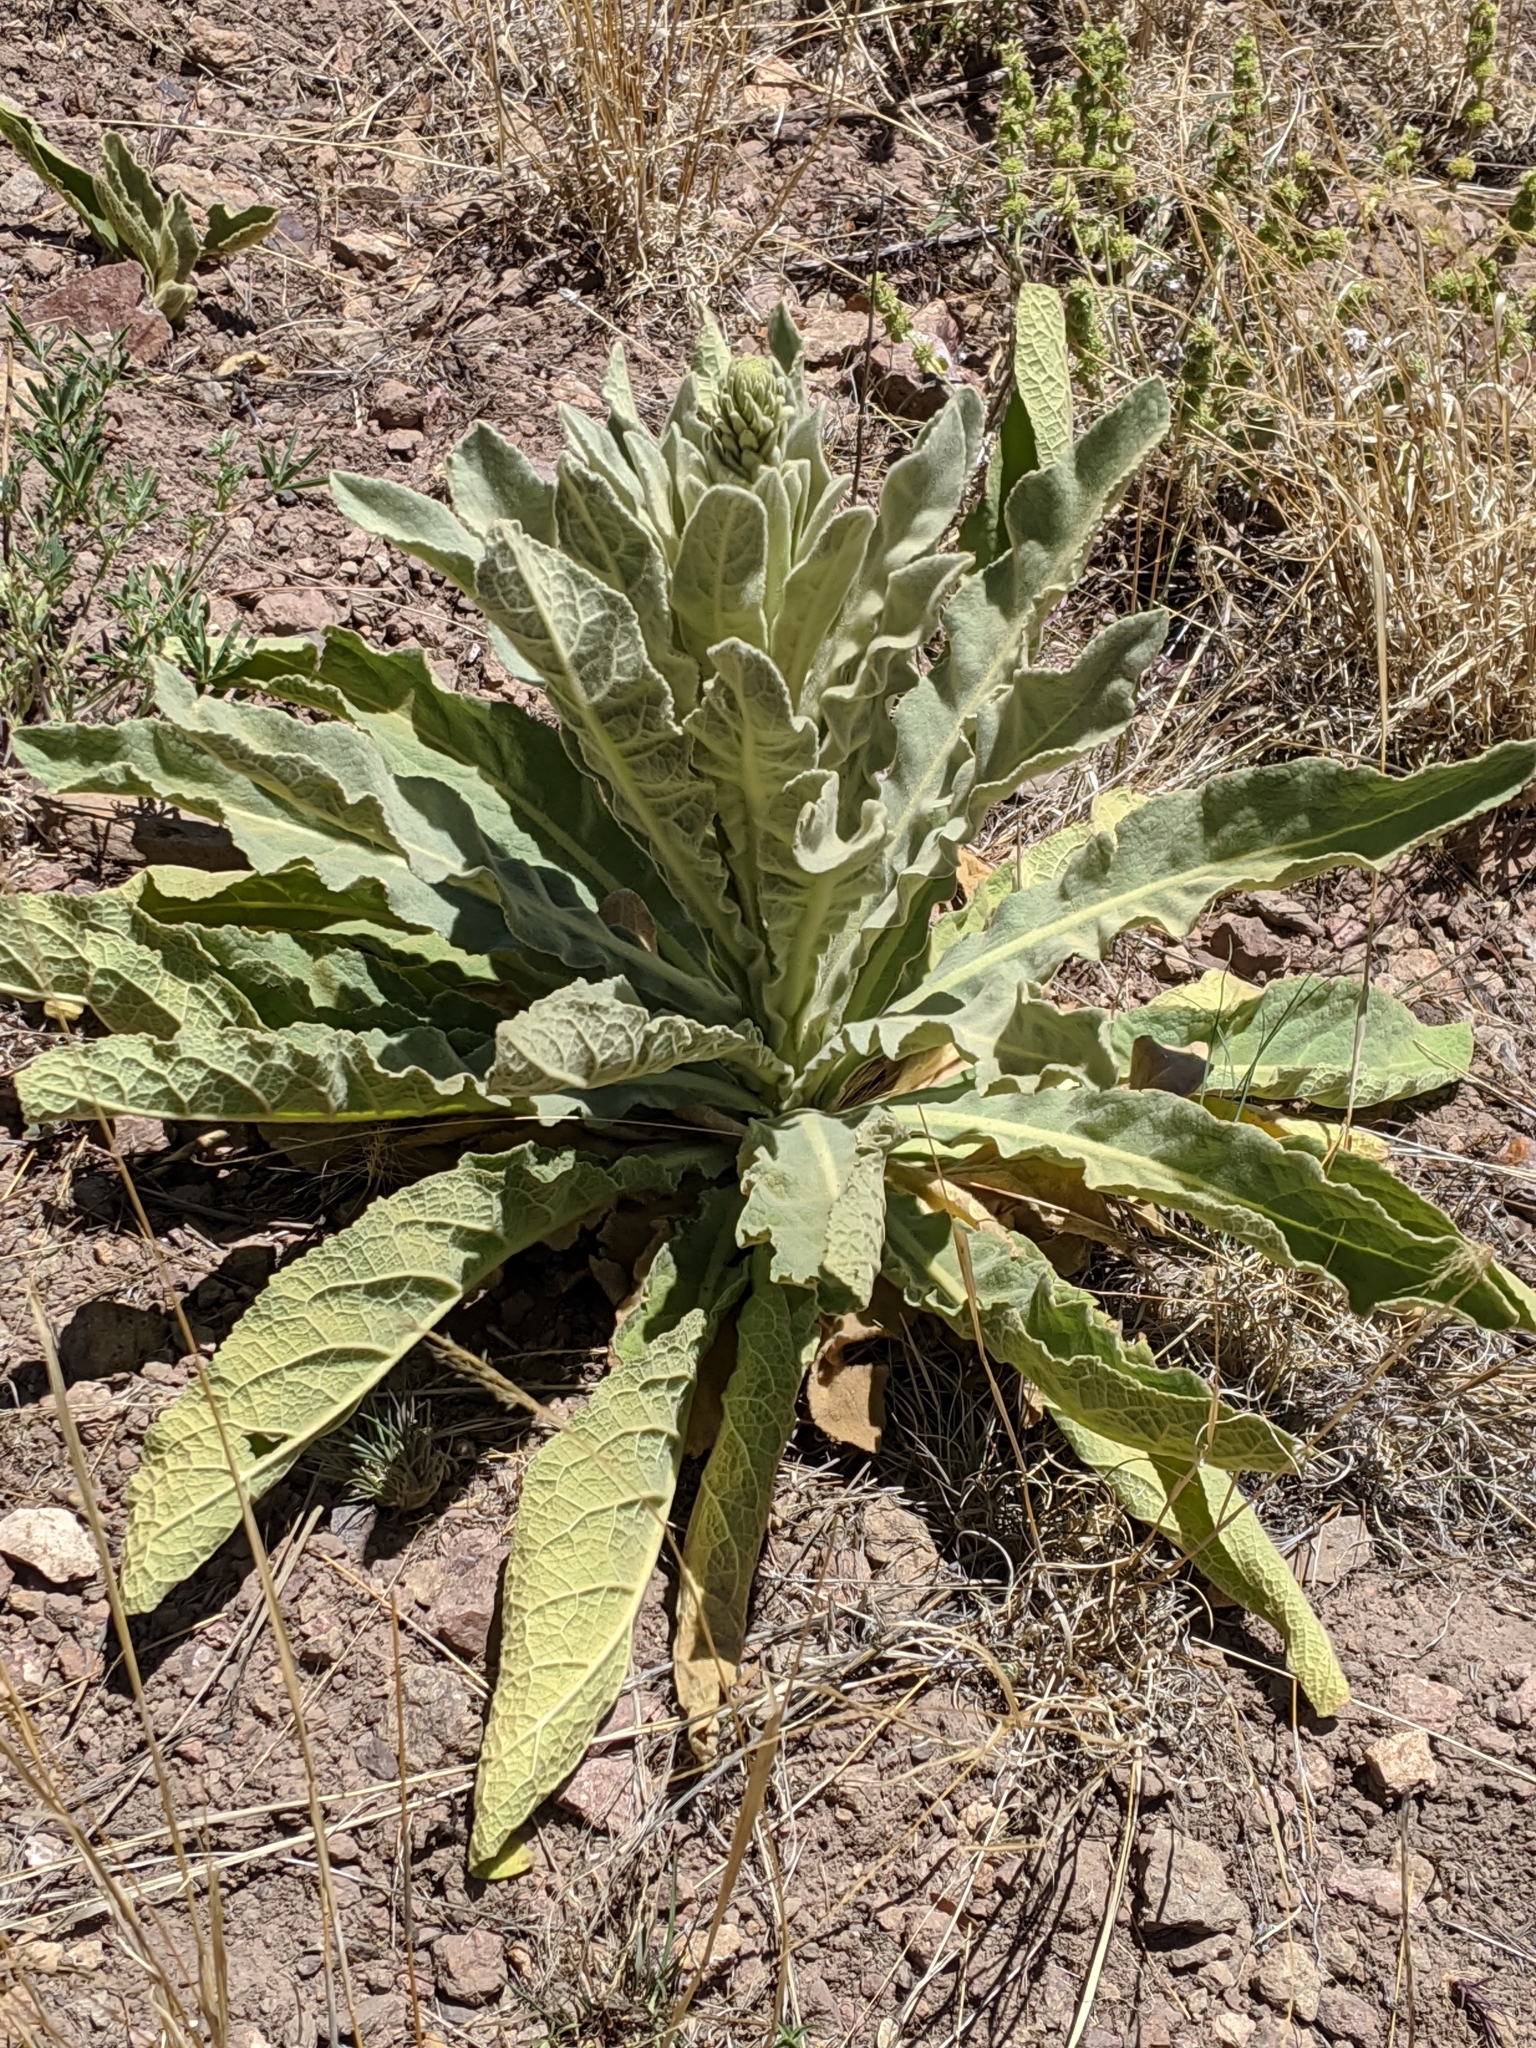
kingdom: Plantae
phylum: Tracheophyta
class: Magnoliopsida
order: Lamiales
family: Scrophulariaceae
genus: Verbascum
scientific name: Verbascum thapsus
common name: Common mullein
